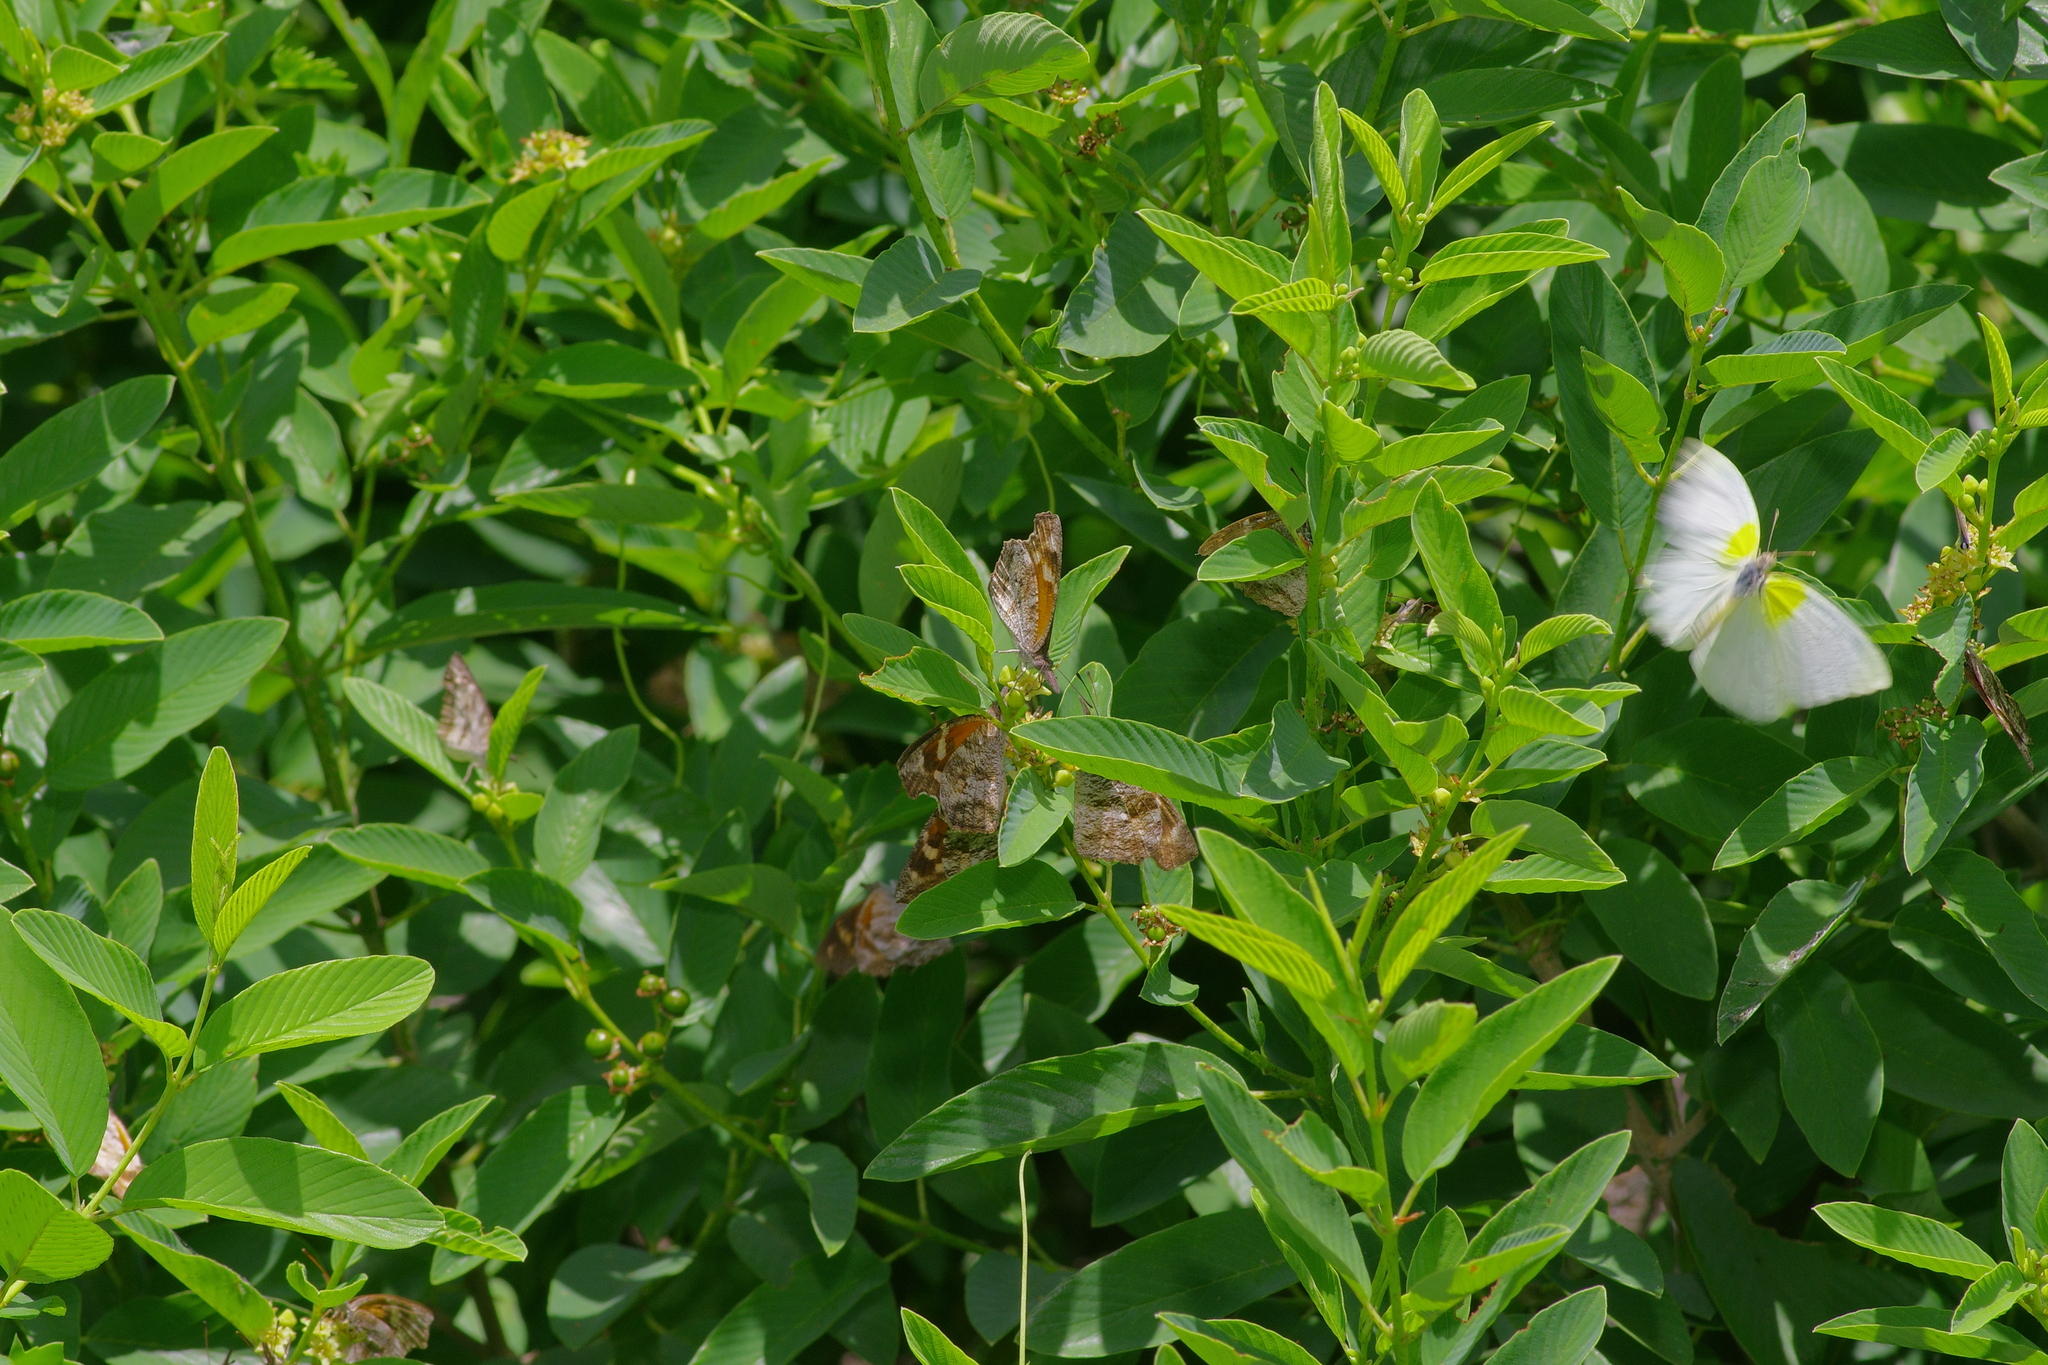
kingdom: Animalia
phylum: Arthropoda
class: Insecta
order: Lepidoptera
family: Nymphalidae
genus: Libytheana
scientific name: Libytheana carinenta
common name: American snout
